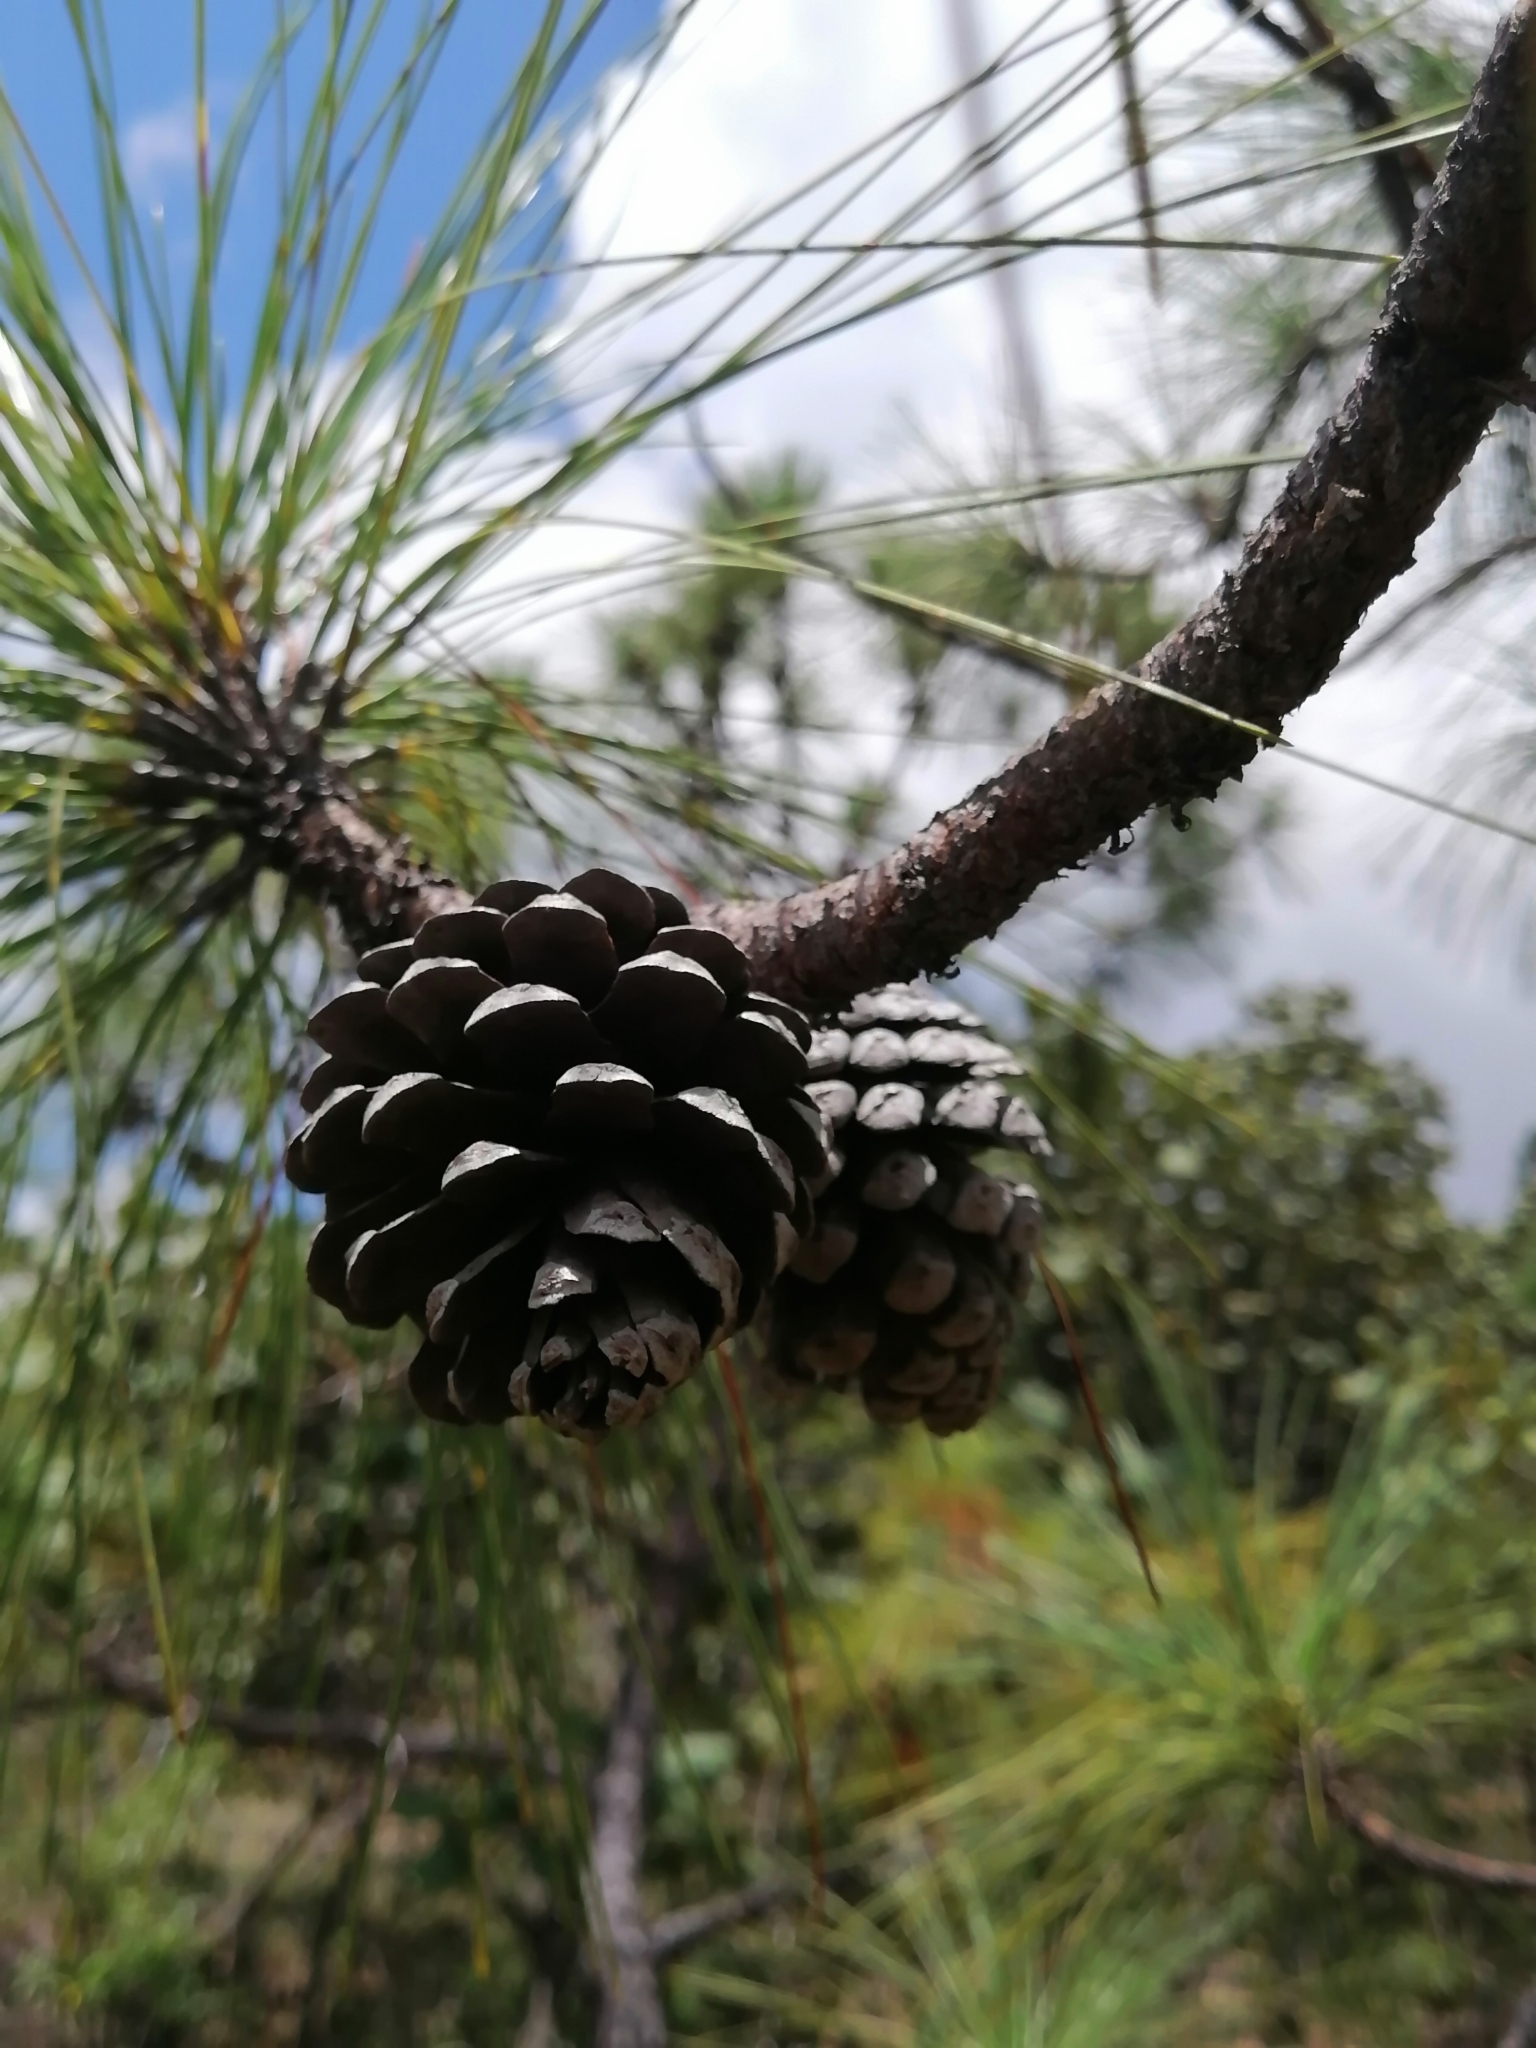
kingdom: Plantae
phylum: Tracheophyta
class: Pinopsida
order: Pinales
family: Pinaceae
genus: Pinus
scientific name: Pinus pringlei
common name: Pringle's pine
